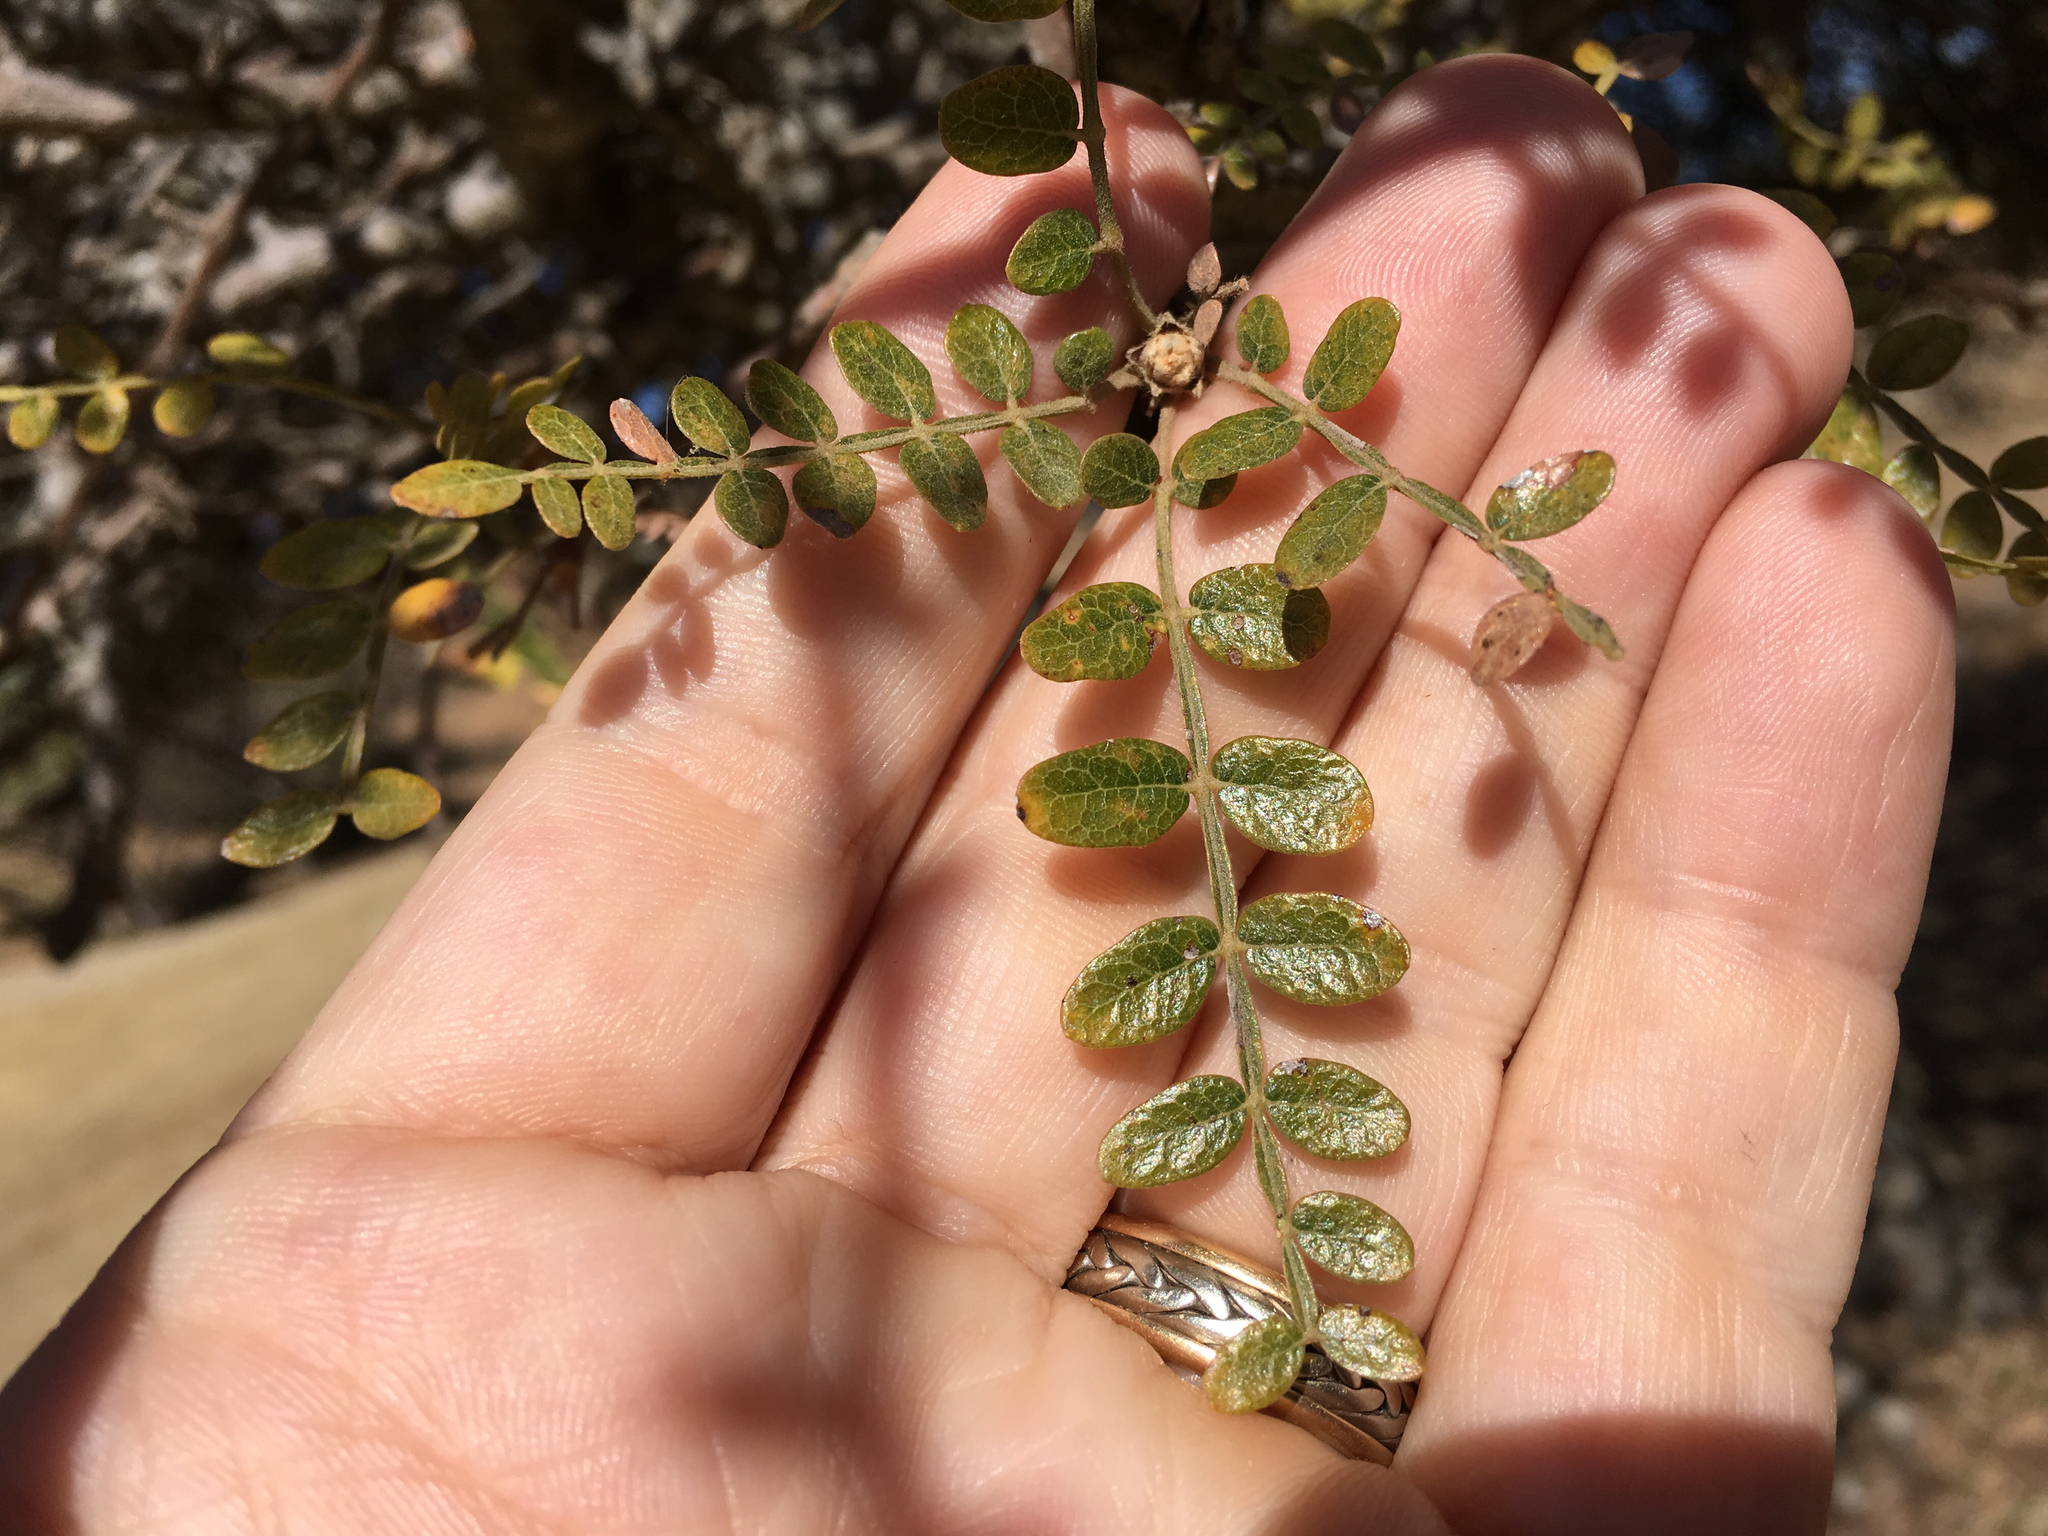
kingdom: Plantae
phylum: Tracheophyta
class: Magnoliopsida
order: Sapindales
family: Rutaceae
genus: Zanthoxylum
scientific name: Zanthoxylum fagara
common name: Lime prickly-ash
